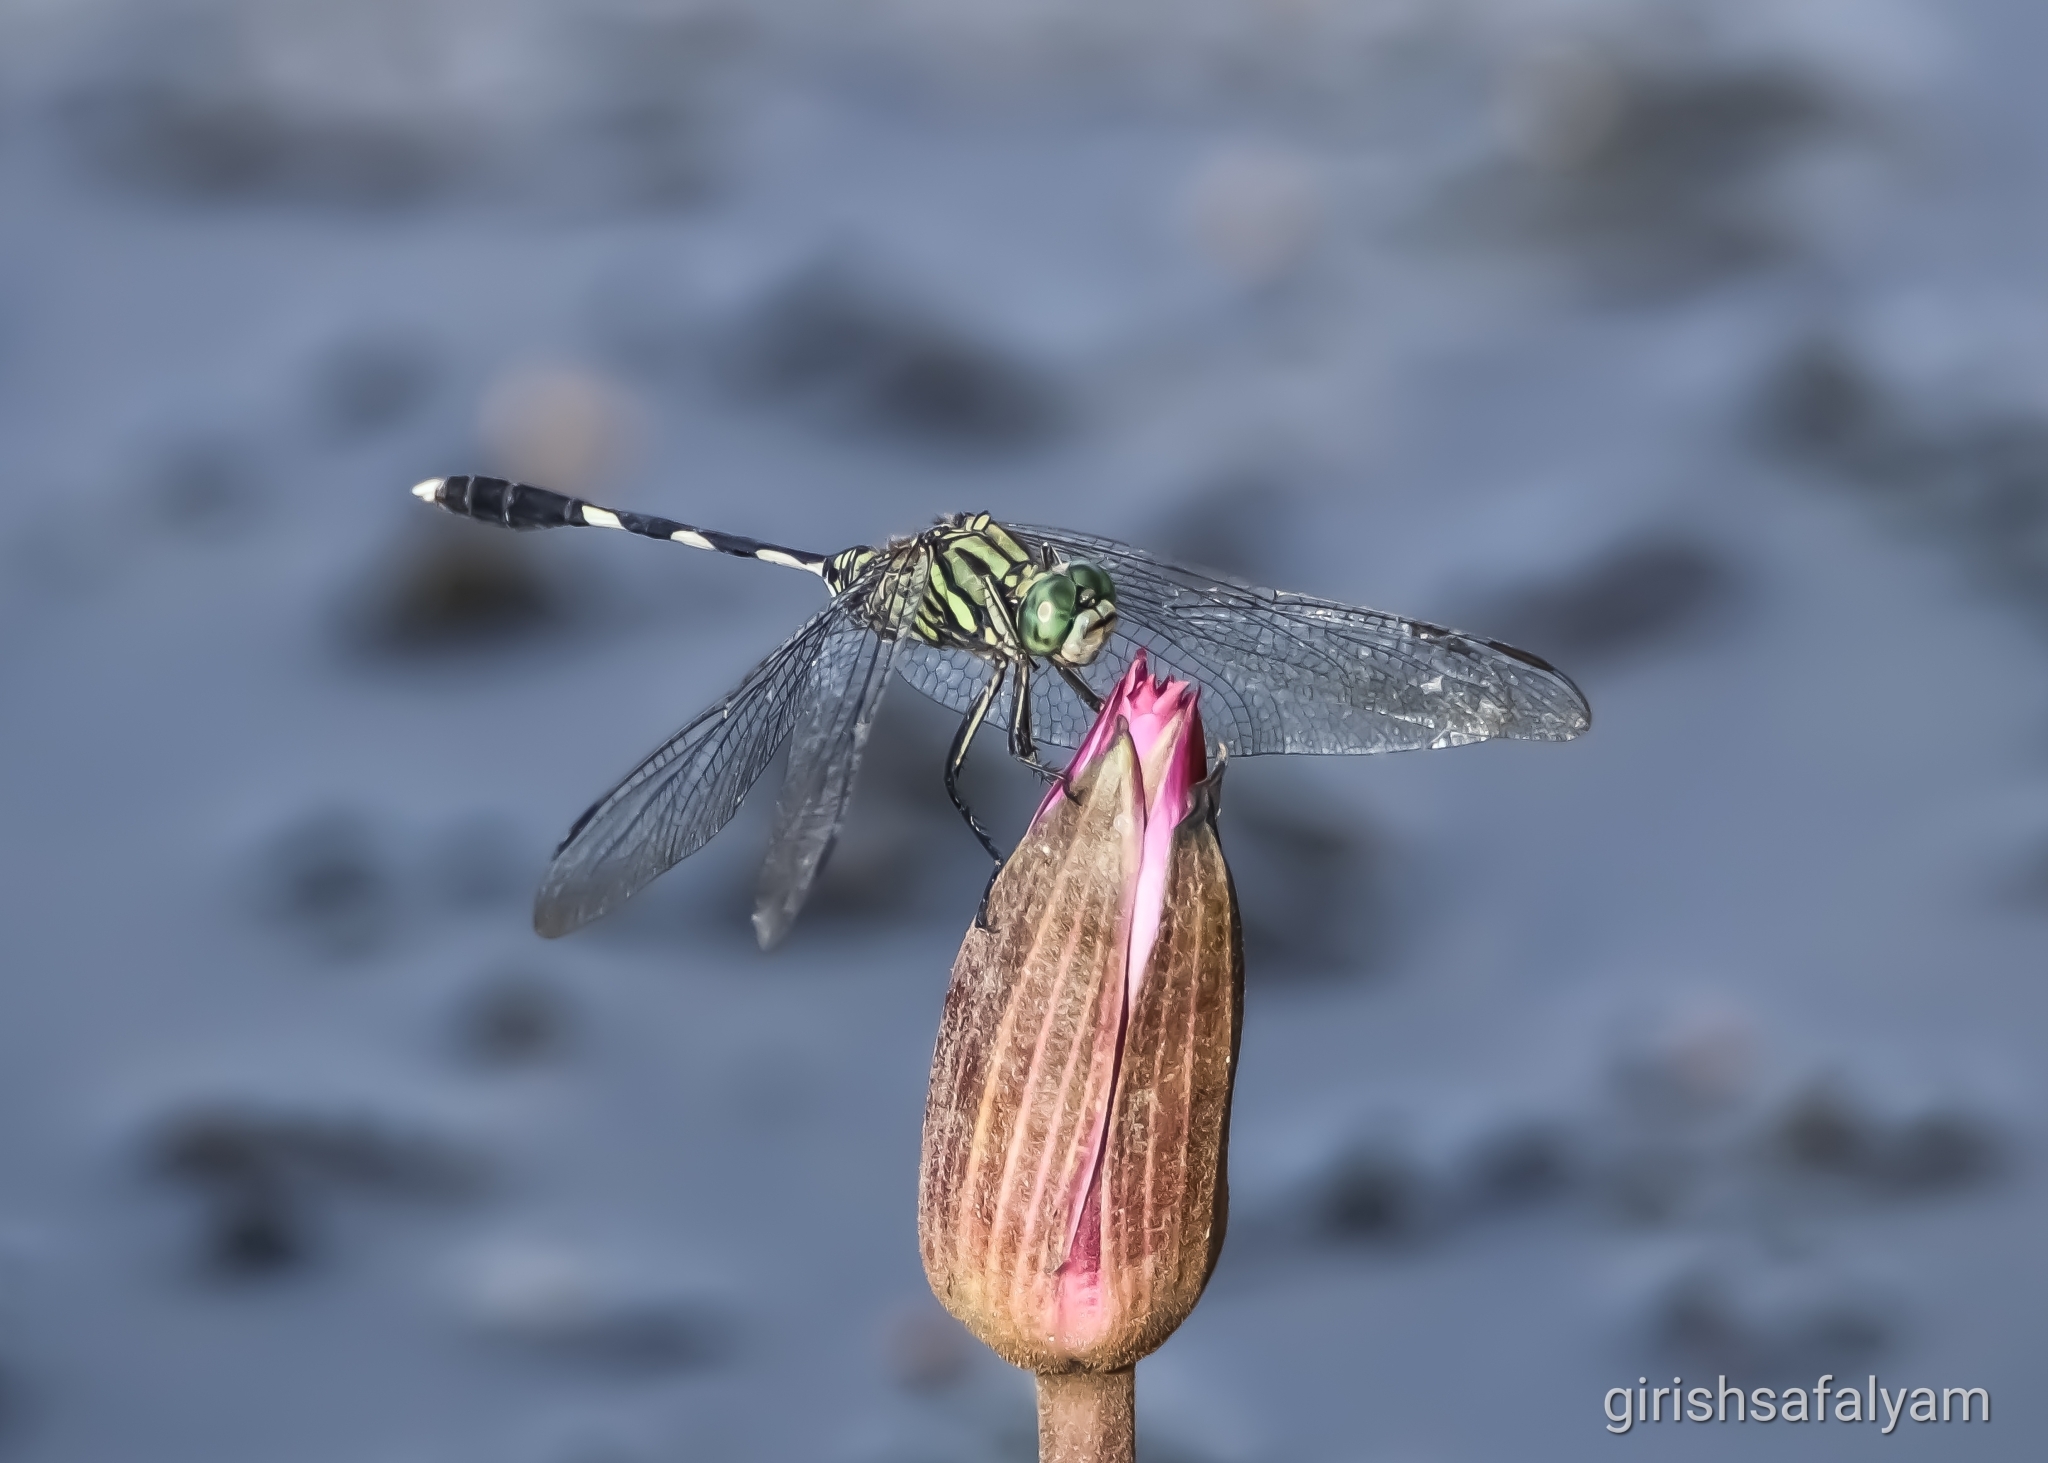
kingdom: Animalia
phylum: Arthropoda
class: Insecta
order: Odonata
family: Libellulidae
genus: Orthetrum
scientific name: Orthetrum sabina
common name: Slender skimmer
